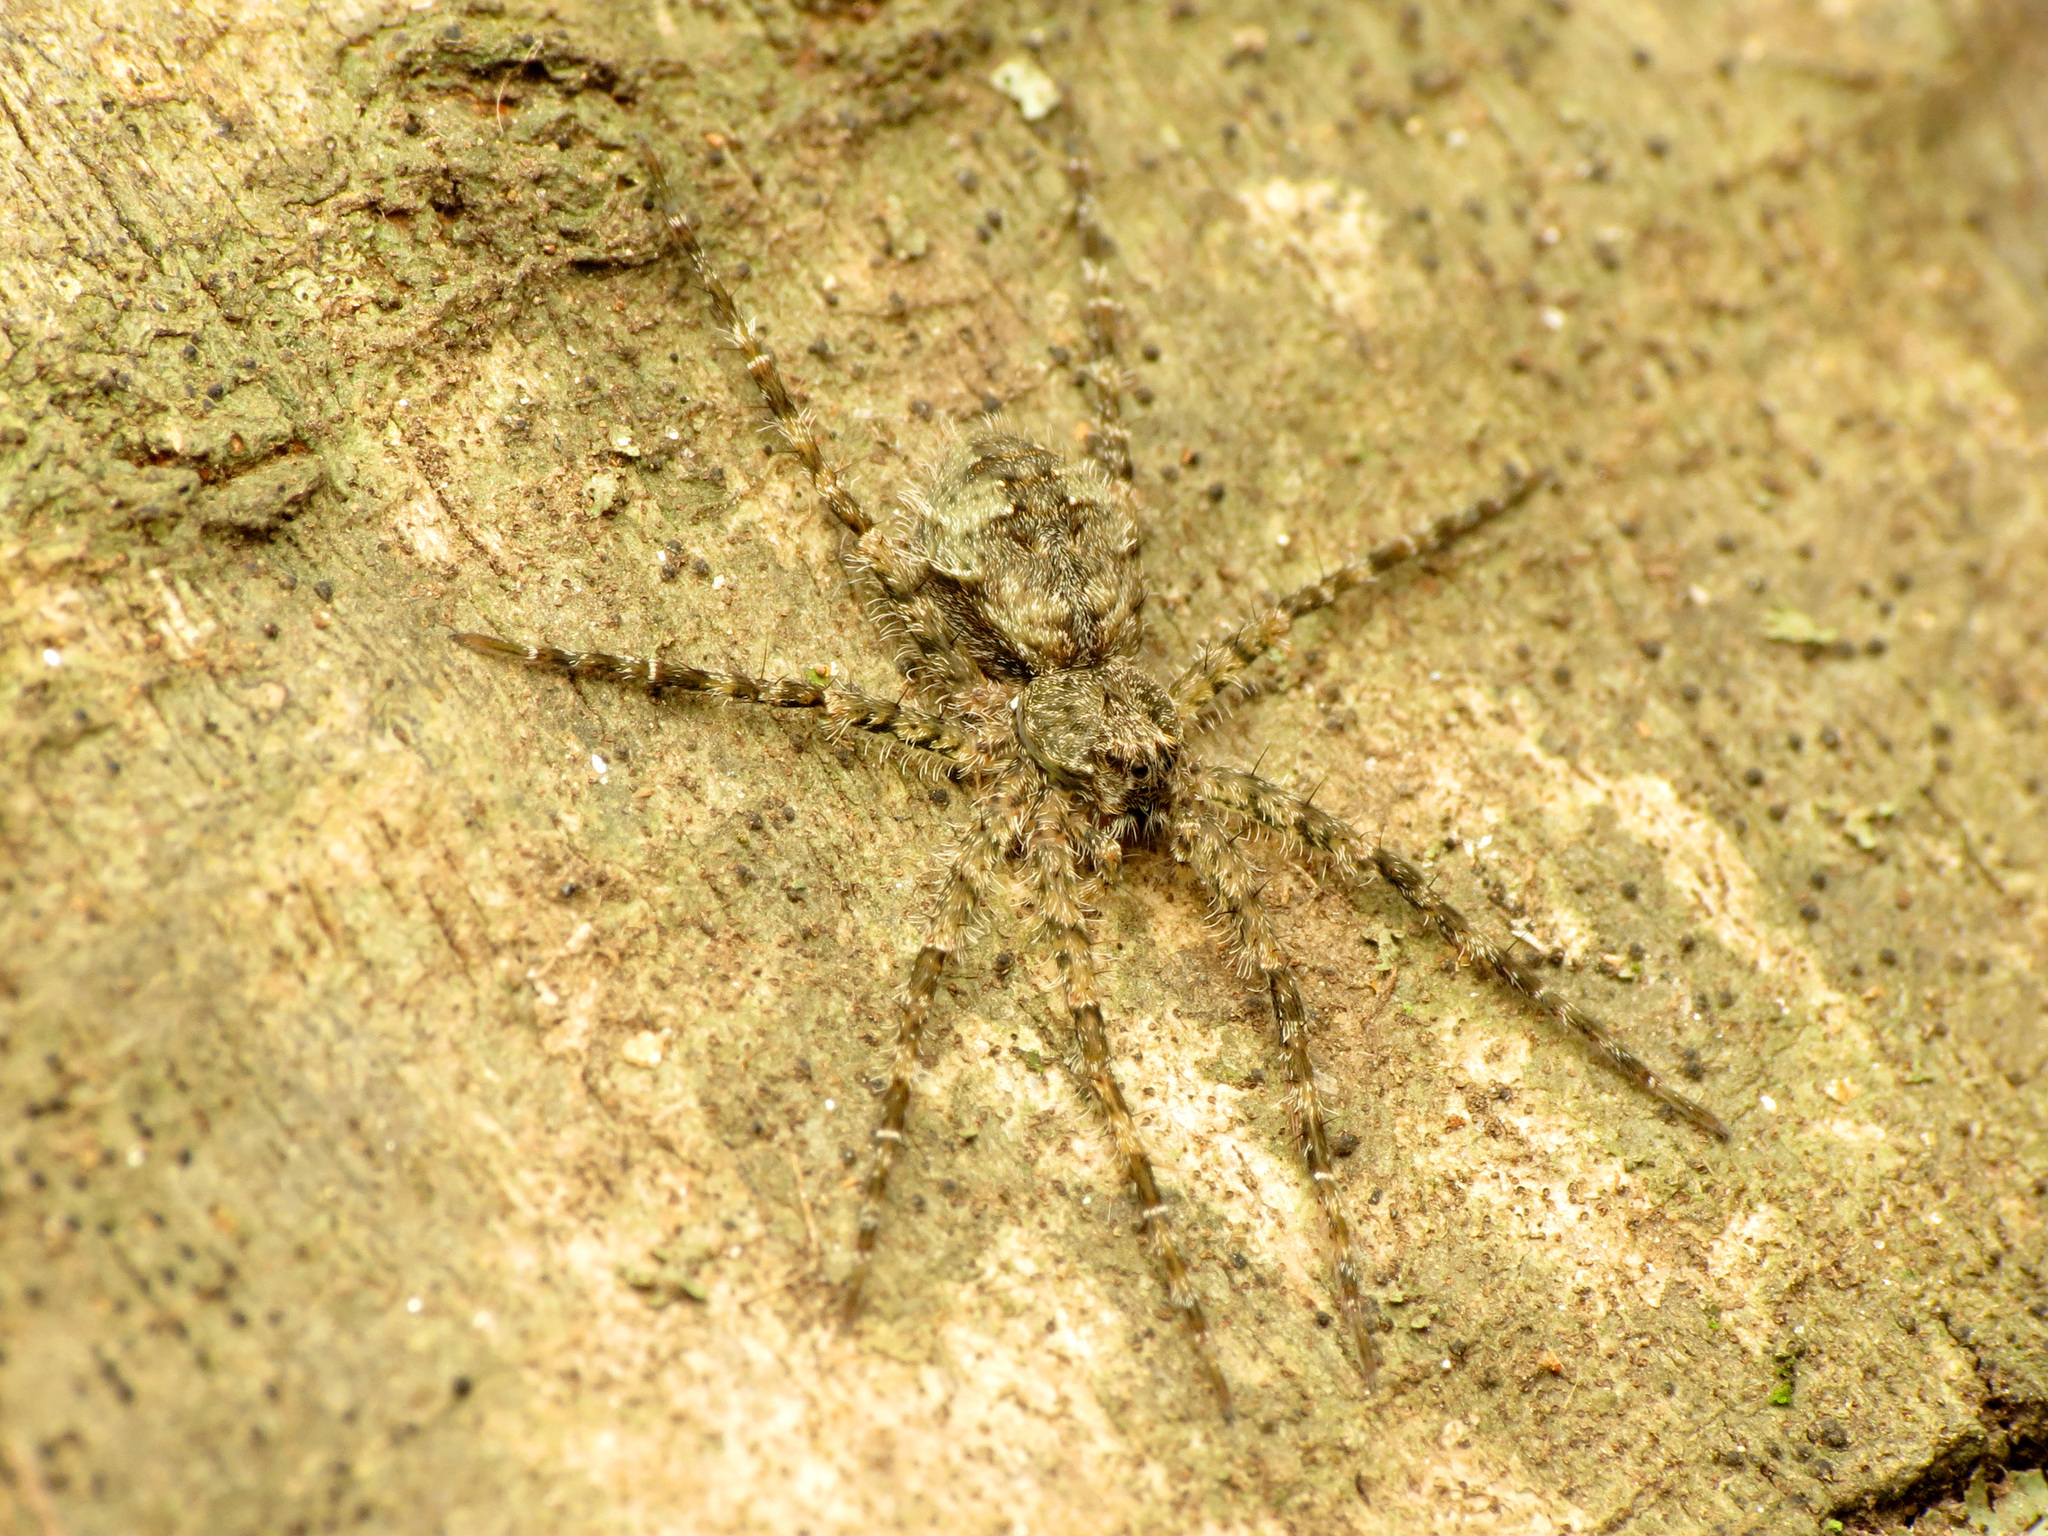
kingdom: Animalia
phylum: Arthropoda
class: Arachnida
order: Araneae
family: Pisauridae
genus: Dolomedes
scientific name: Dolomedes albineus
